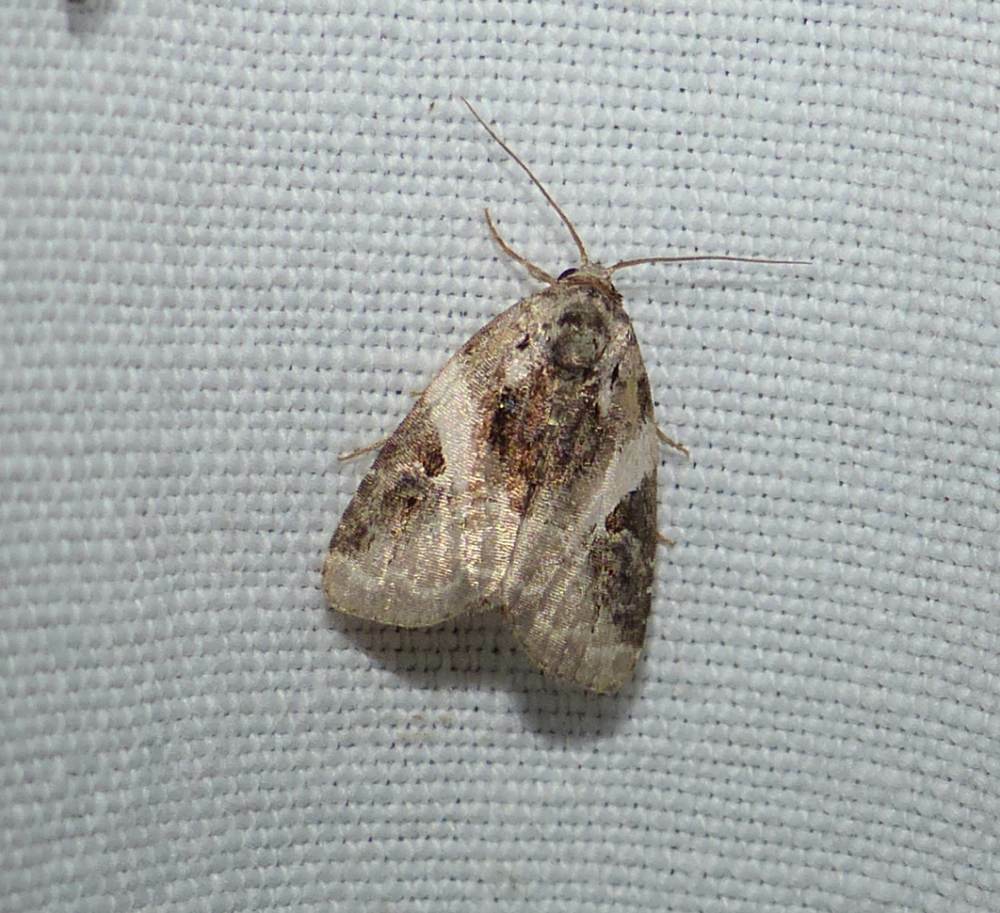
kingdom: Animalia
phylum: Arthropoda
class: Insecta
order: Lepidoptera
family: Noctuidae
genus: Pseudeustrotia
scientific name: Pseudeustrotia carneola
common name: Pink-barred lithacodia moth
